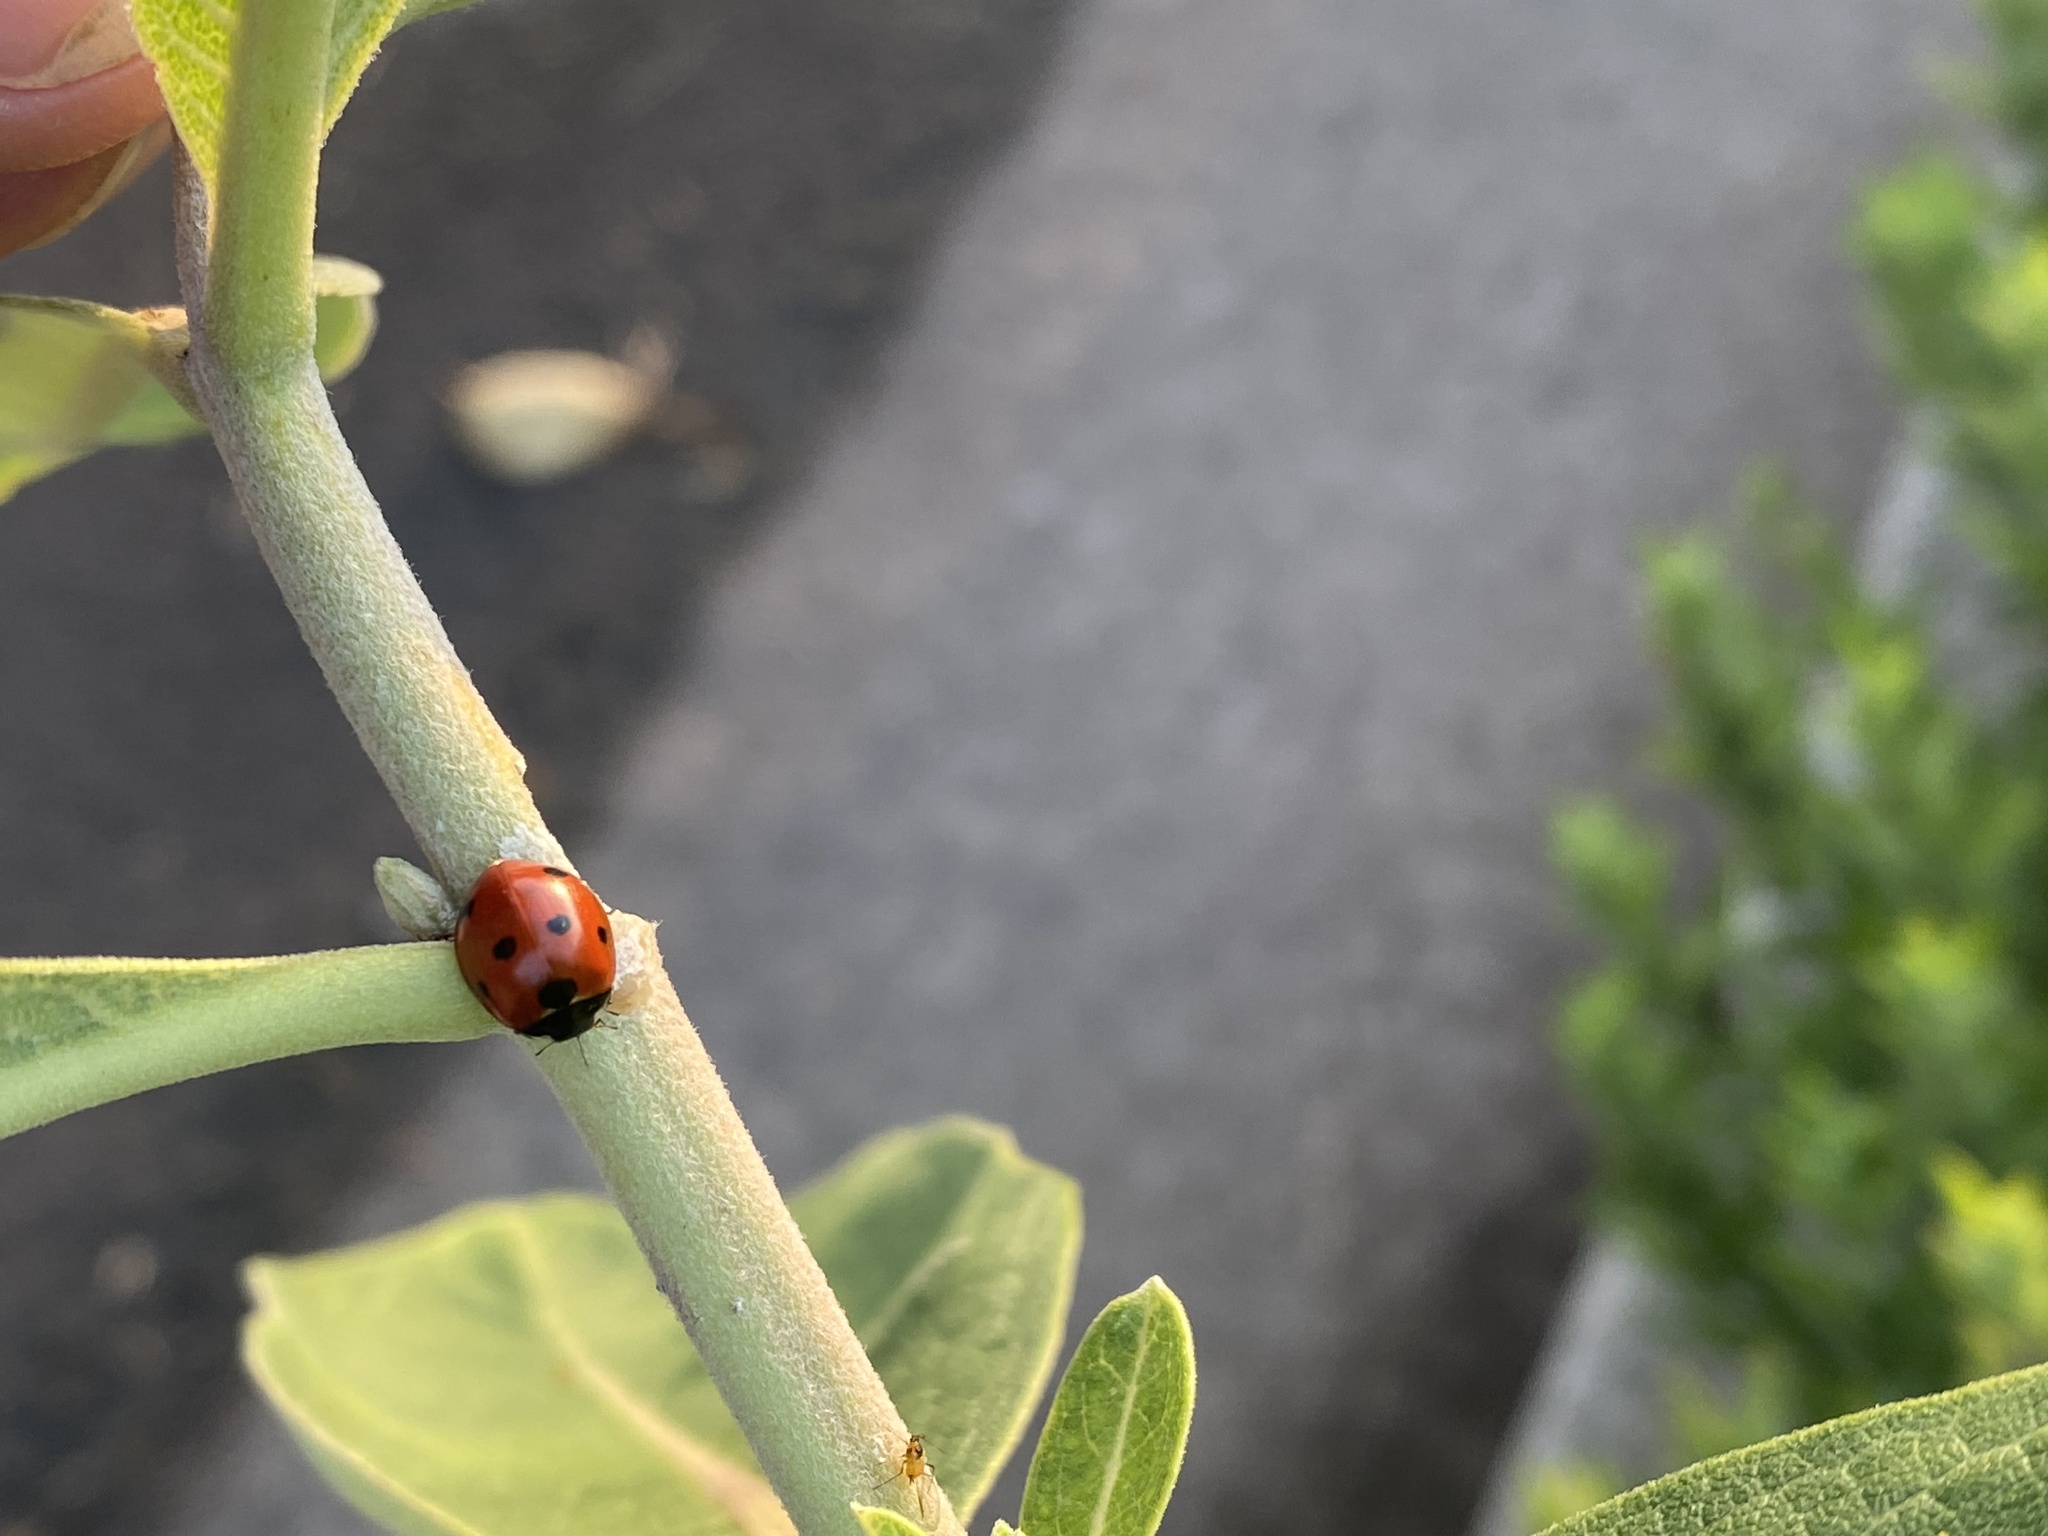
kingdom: Animalia
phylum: Arthropoda
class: Insecta
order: Coleoptera
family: Coccinellidae
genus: Coccinella
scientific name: Coccinella septempunctata
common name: Sevenspotted lady beetle
